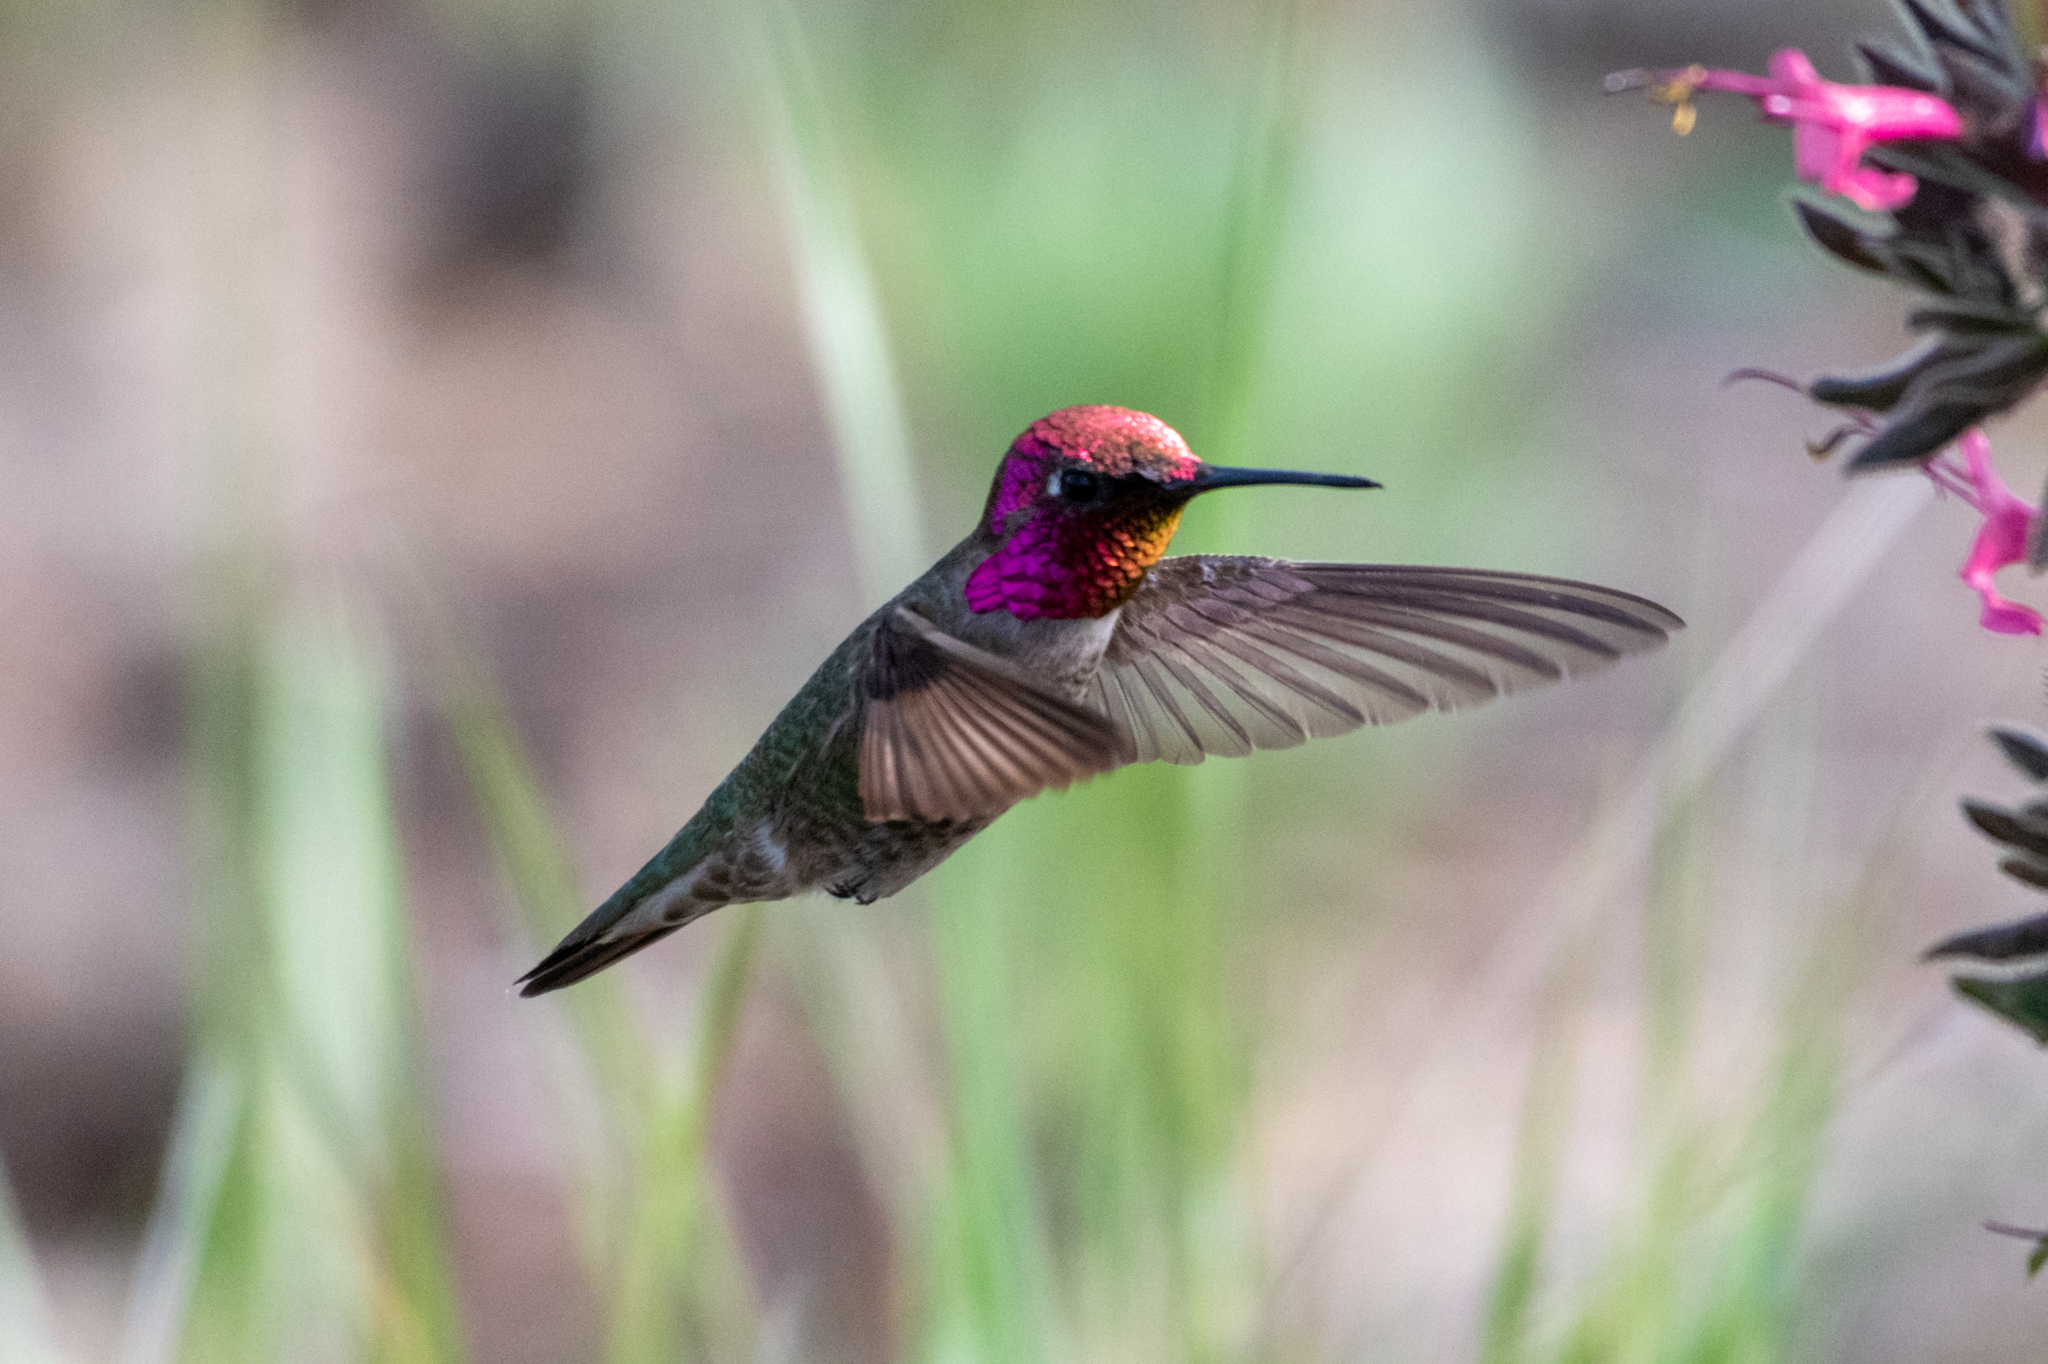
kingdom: Animalia
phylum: Chordata
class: Aves
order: Apodiformes
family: Trochilidae
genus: Calypte
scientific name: Calypte anna
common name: Anna's hummingbird
